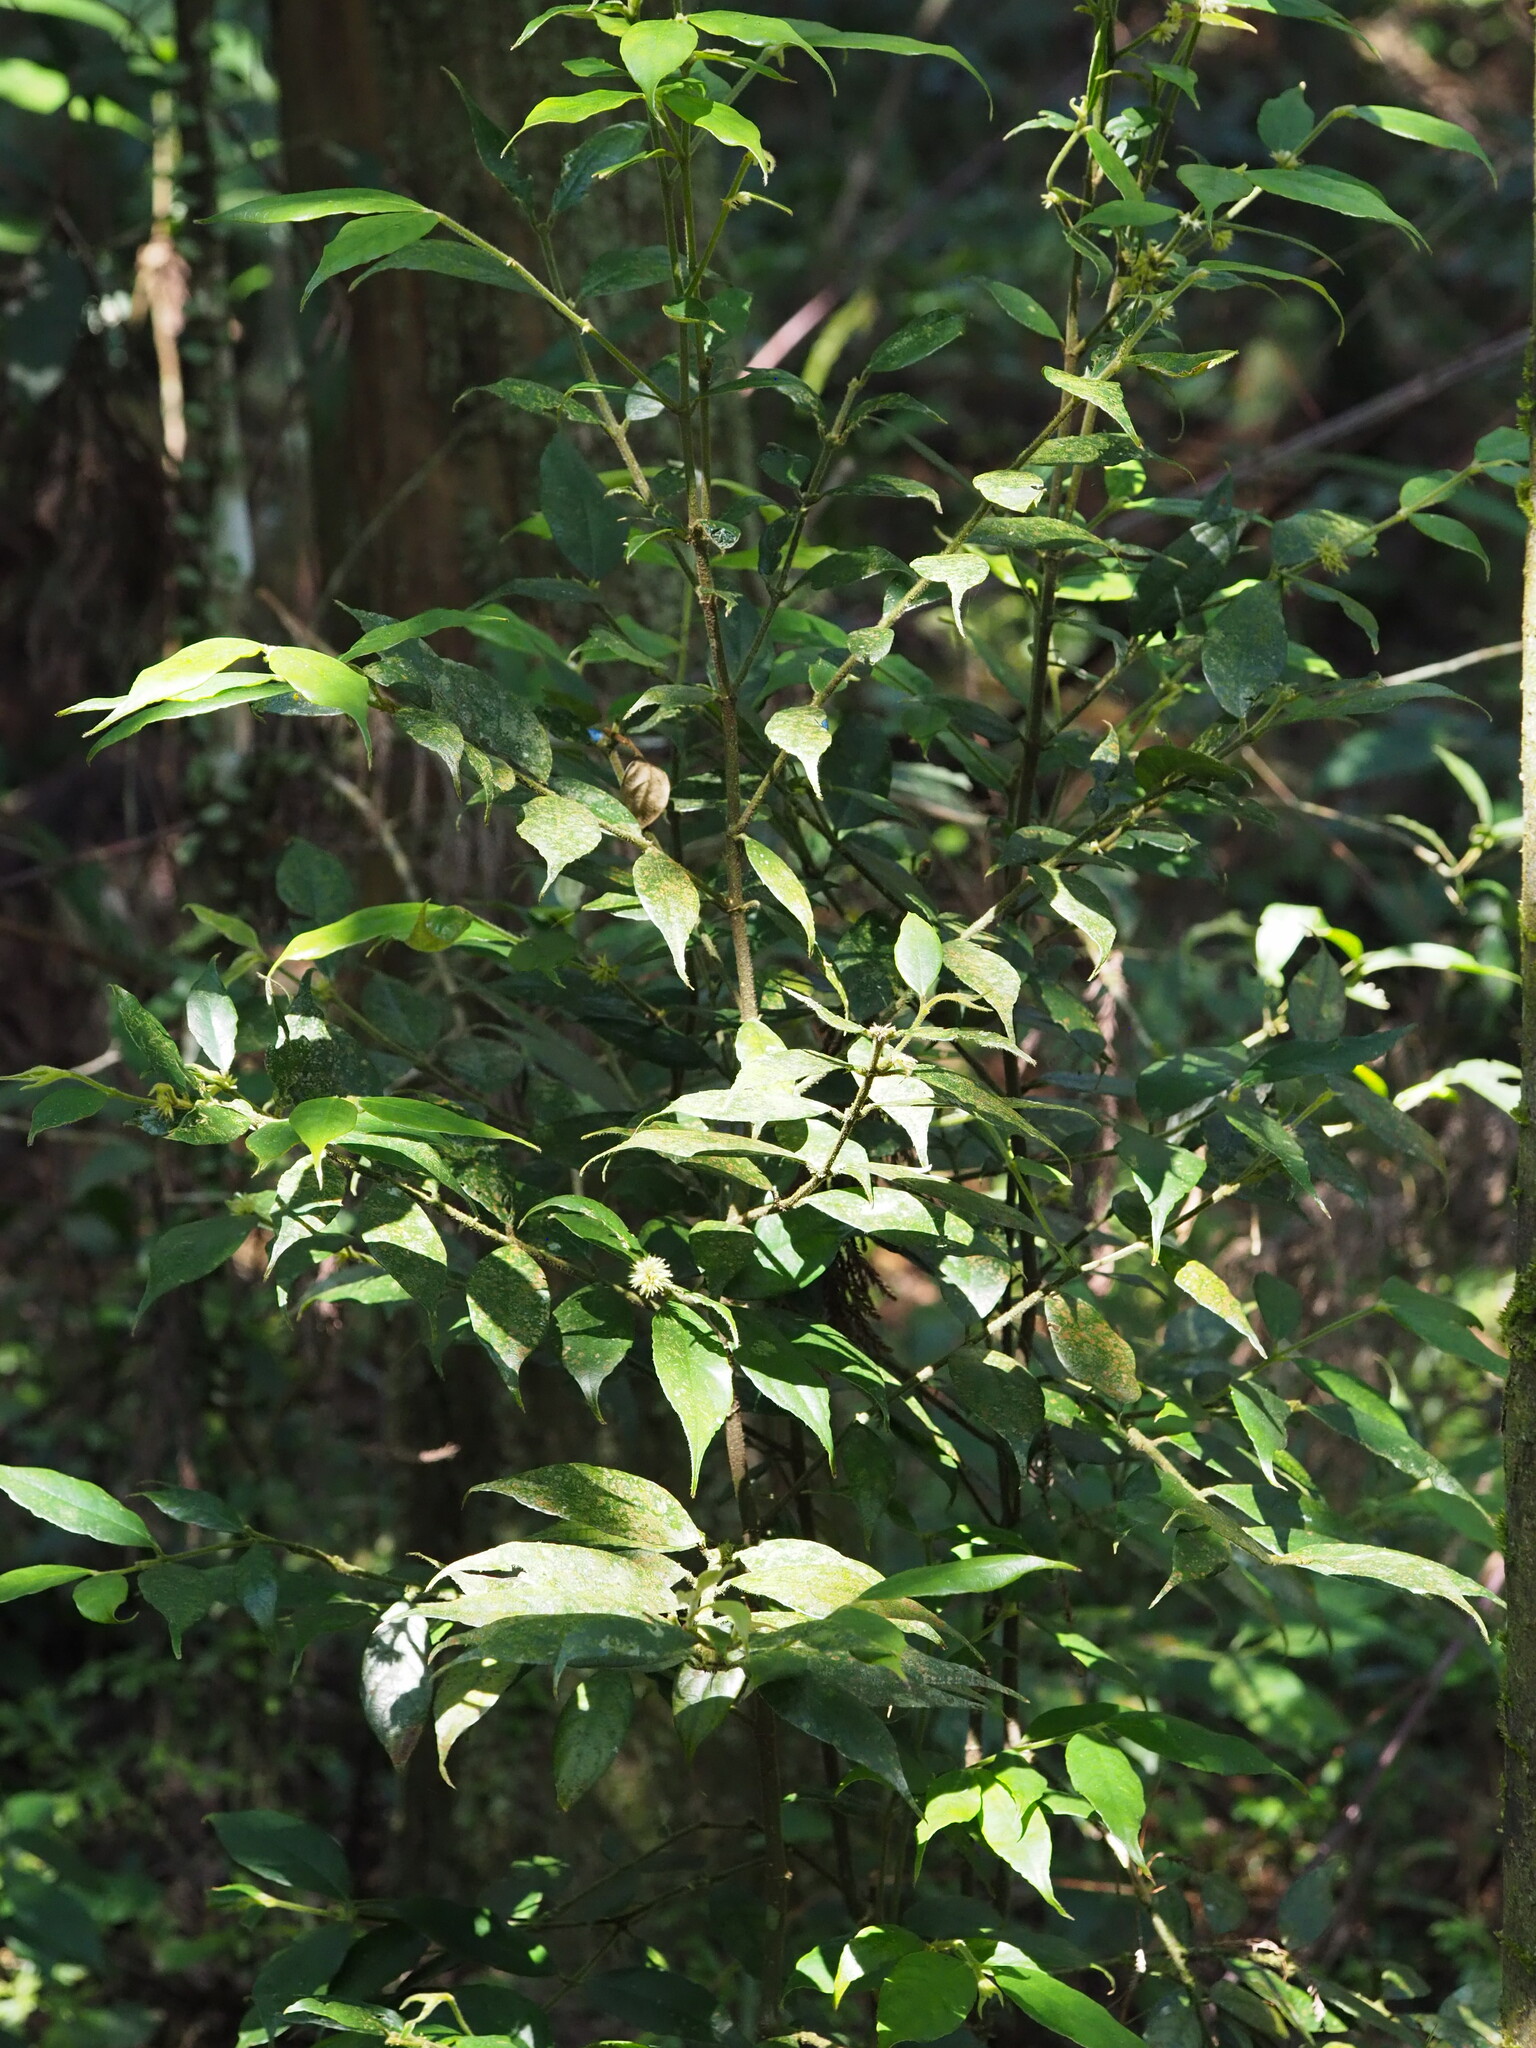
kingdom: Plantae
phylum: Tracheophyta
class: Magnoliopsida
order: Gentianales
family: Rubiaceae
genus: Lasianthus
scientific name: Lasianthus curtisii
